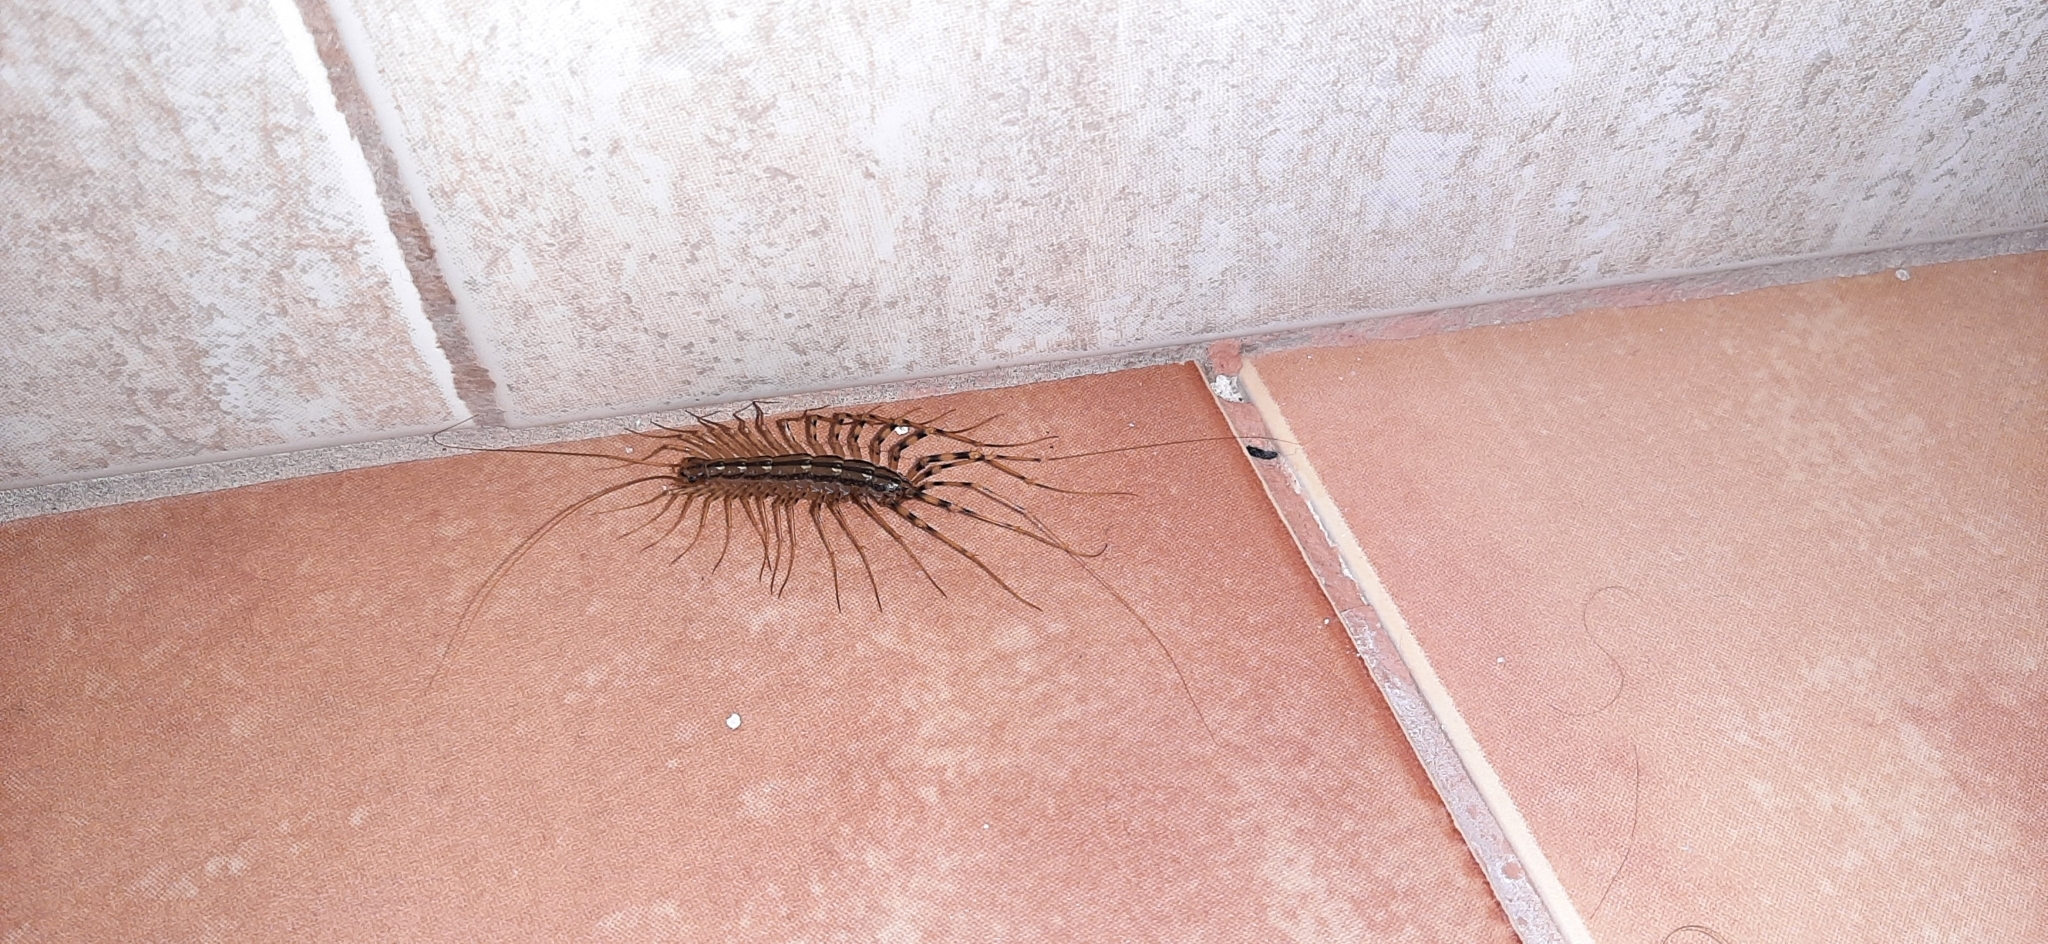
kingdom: Animalia
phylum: Arthropoda
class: Chilopoda
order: Scutigeromorpha
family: Scutigeridae
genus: Scutigera
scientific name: Scutigera coleoptrata
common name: House centipede
